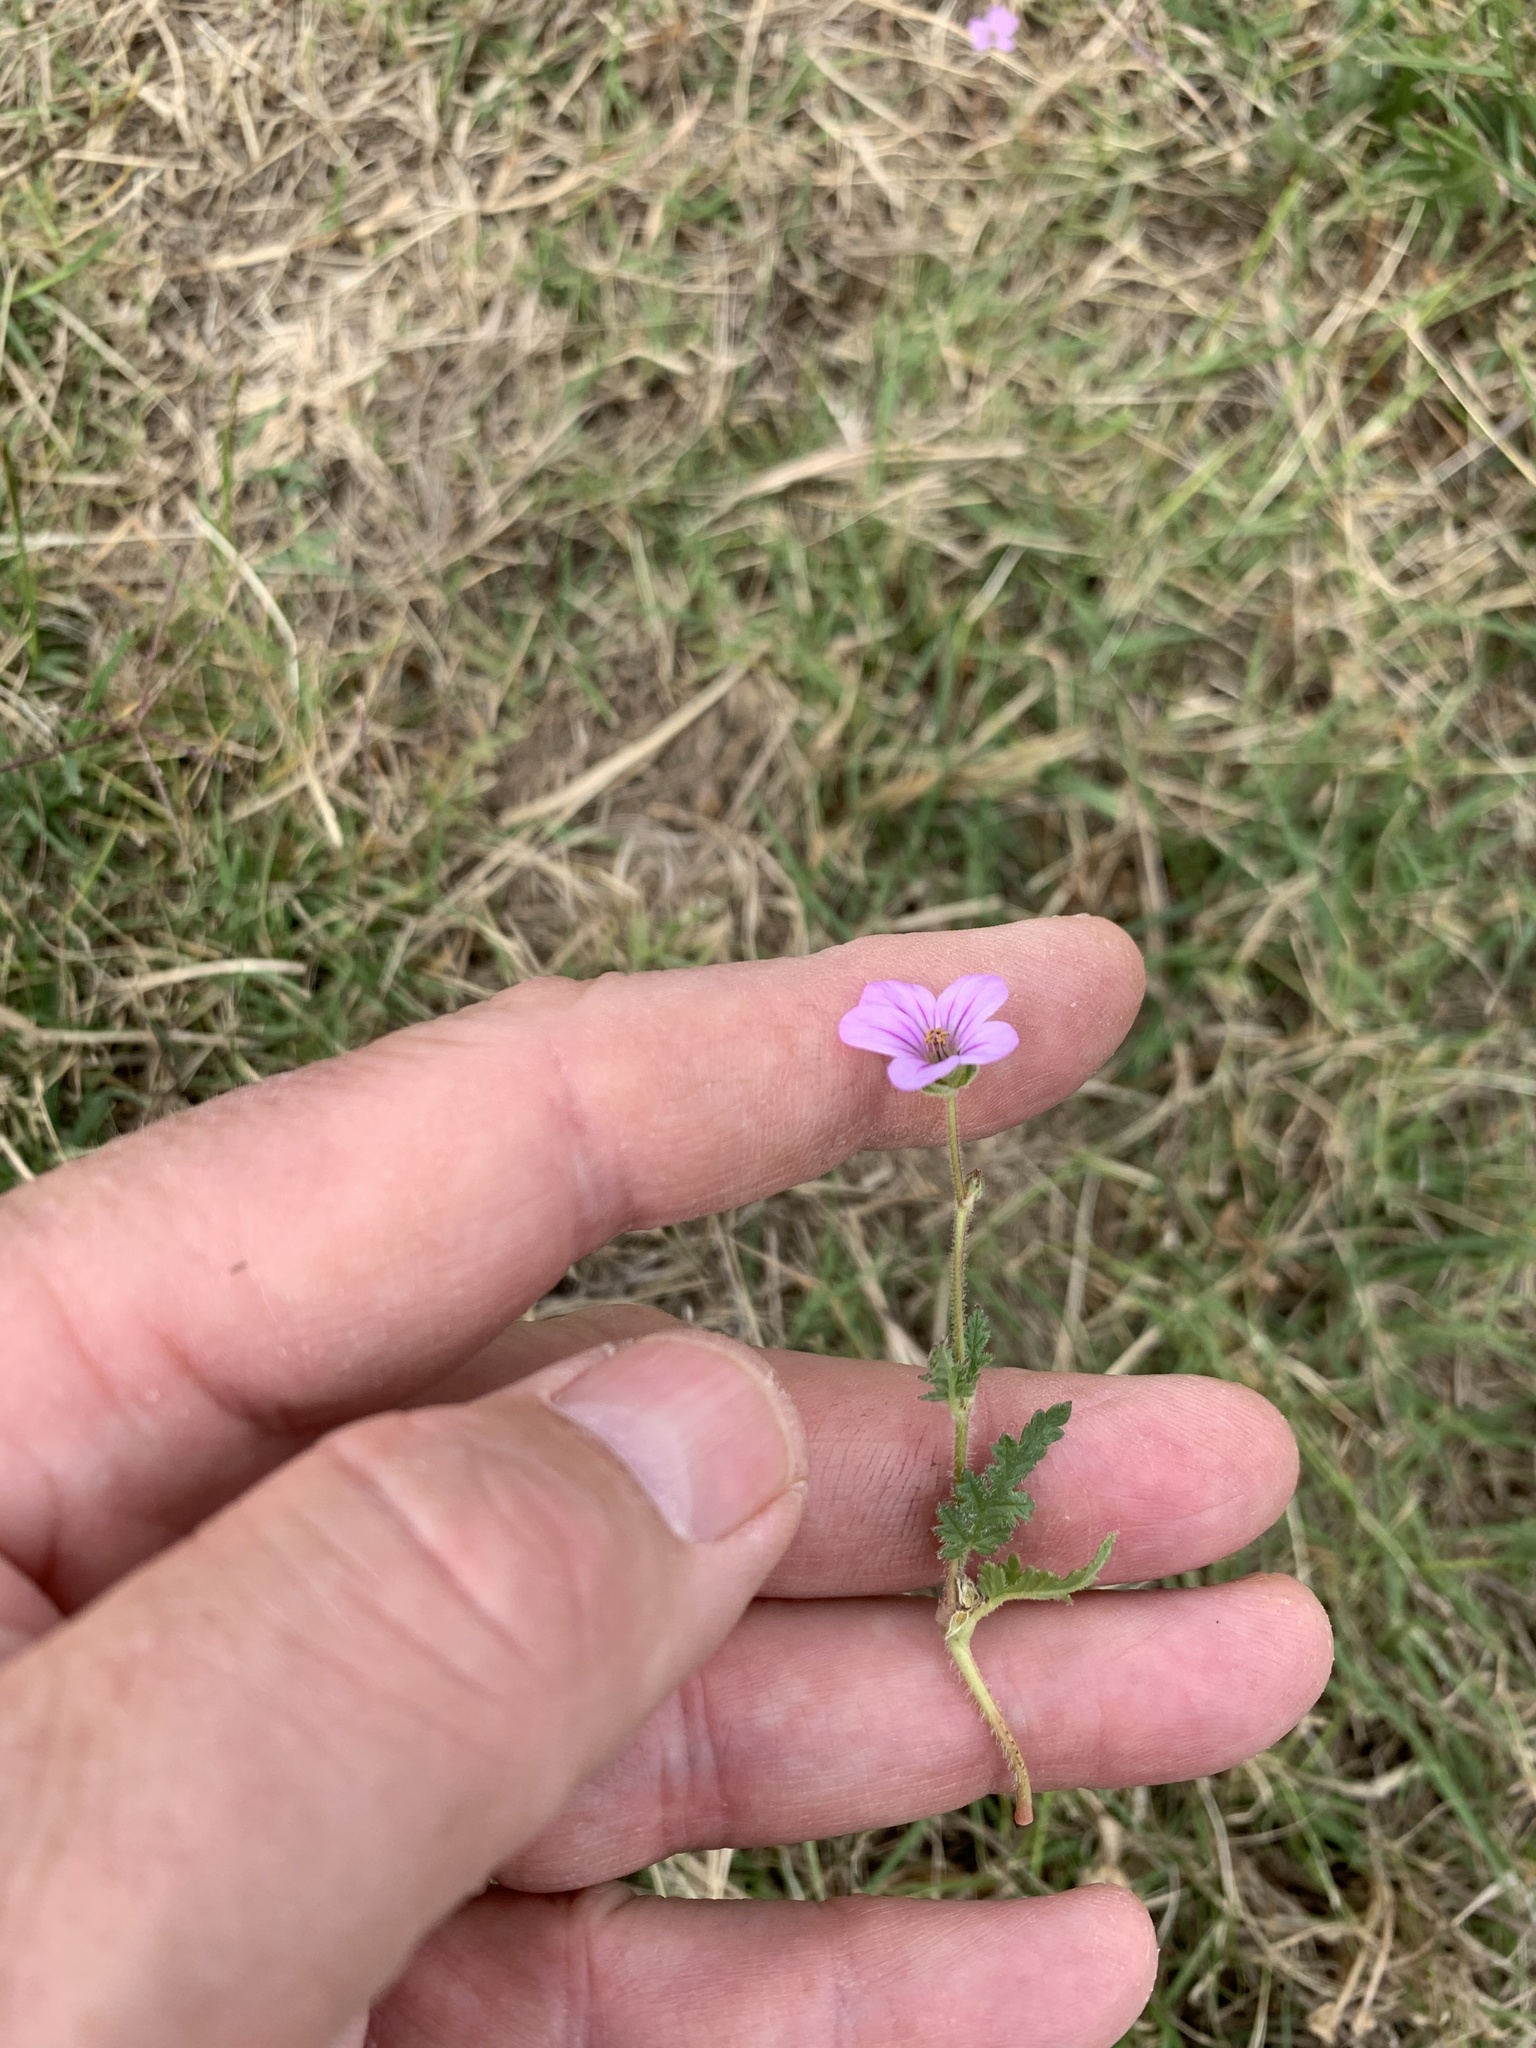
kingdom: Plantae
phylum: Tracheophyta
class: Magnoliopsida
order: Geraniales
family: Geraniaceae
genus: Erodium
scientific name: Erodium botrys
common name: Mediterranean stork's-bill
